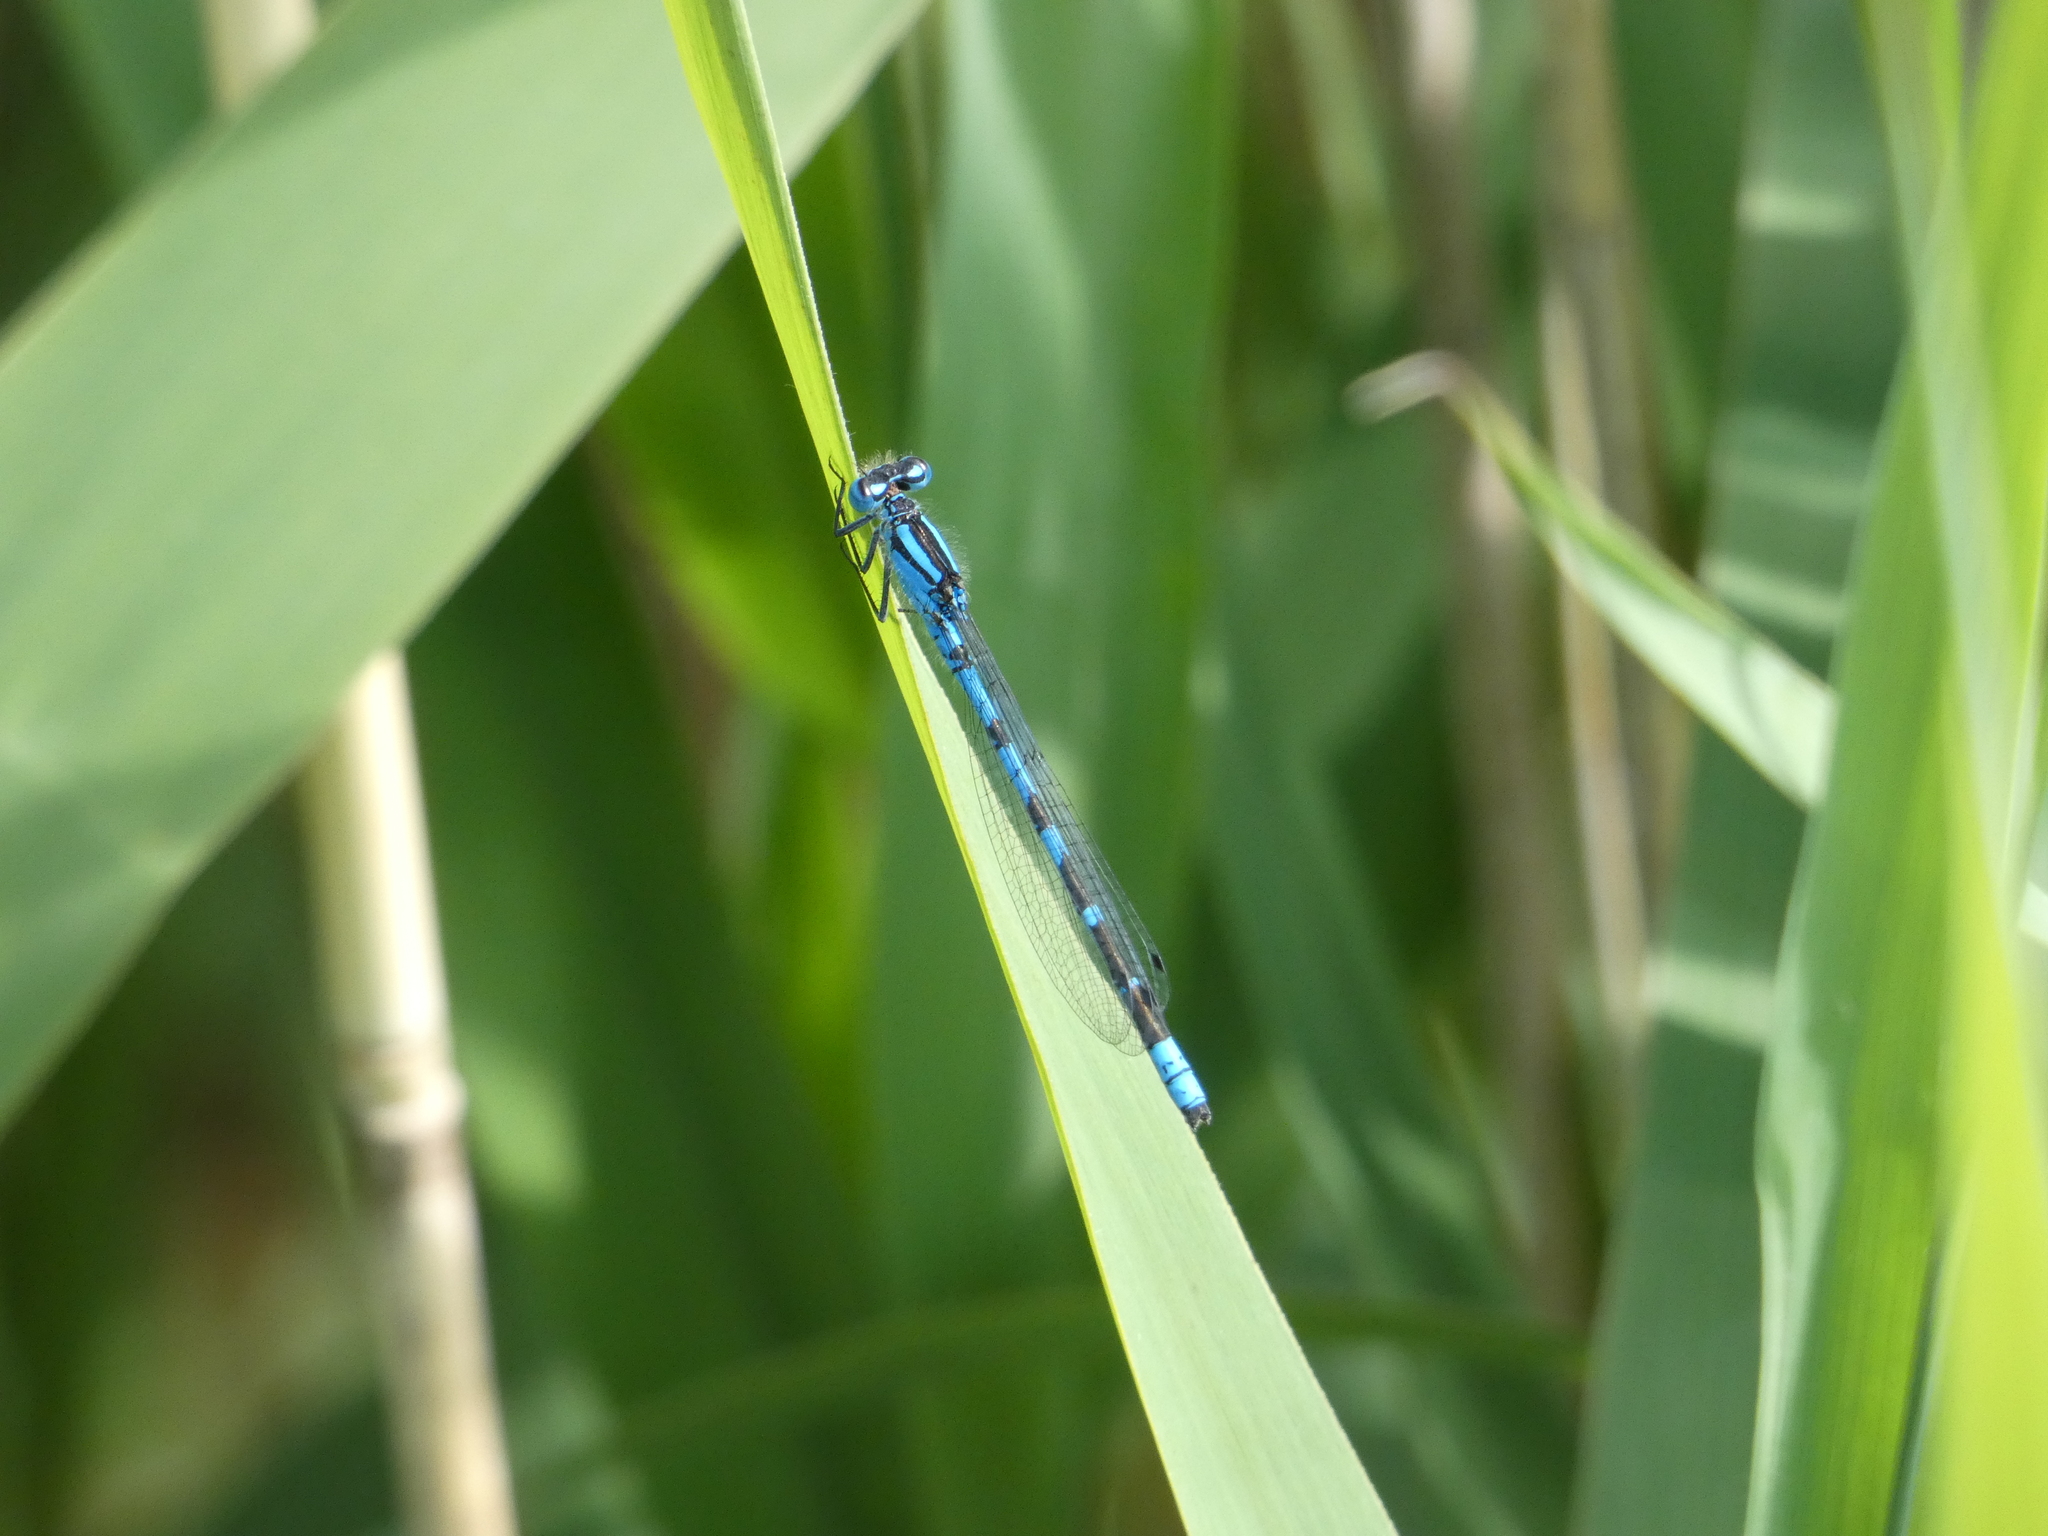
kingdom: Animalia
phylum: Arthropoda
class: Insecta
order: Odonata
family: Coenagrionidae
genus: Enallagma
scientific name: Enallagma cyathigerum
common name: Common blue damselfly
